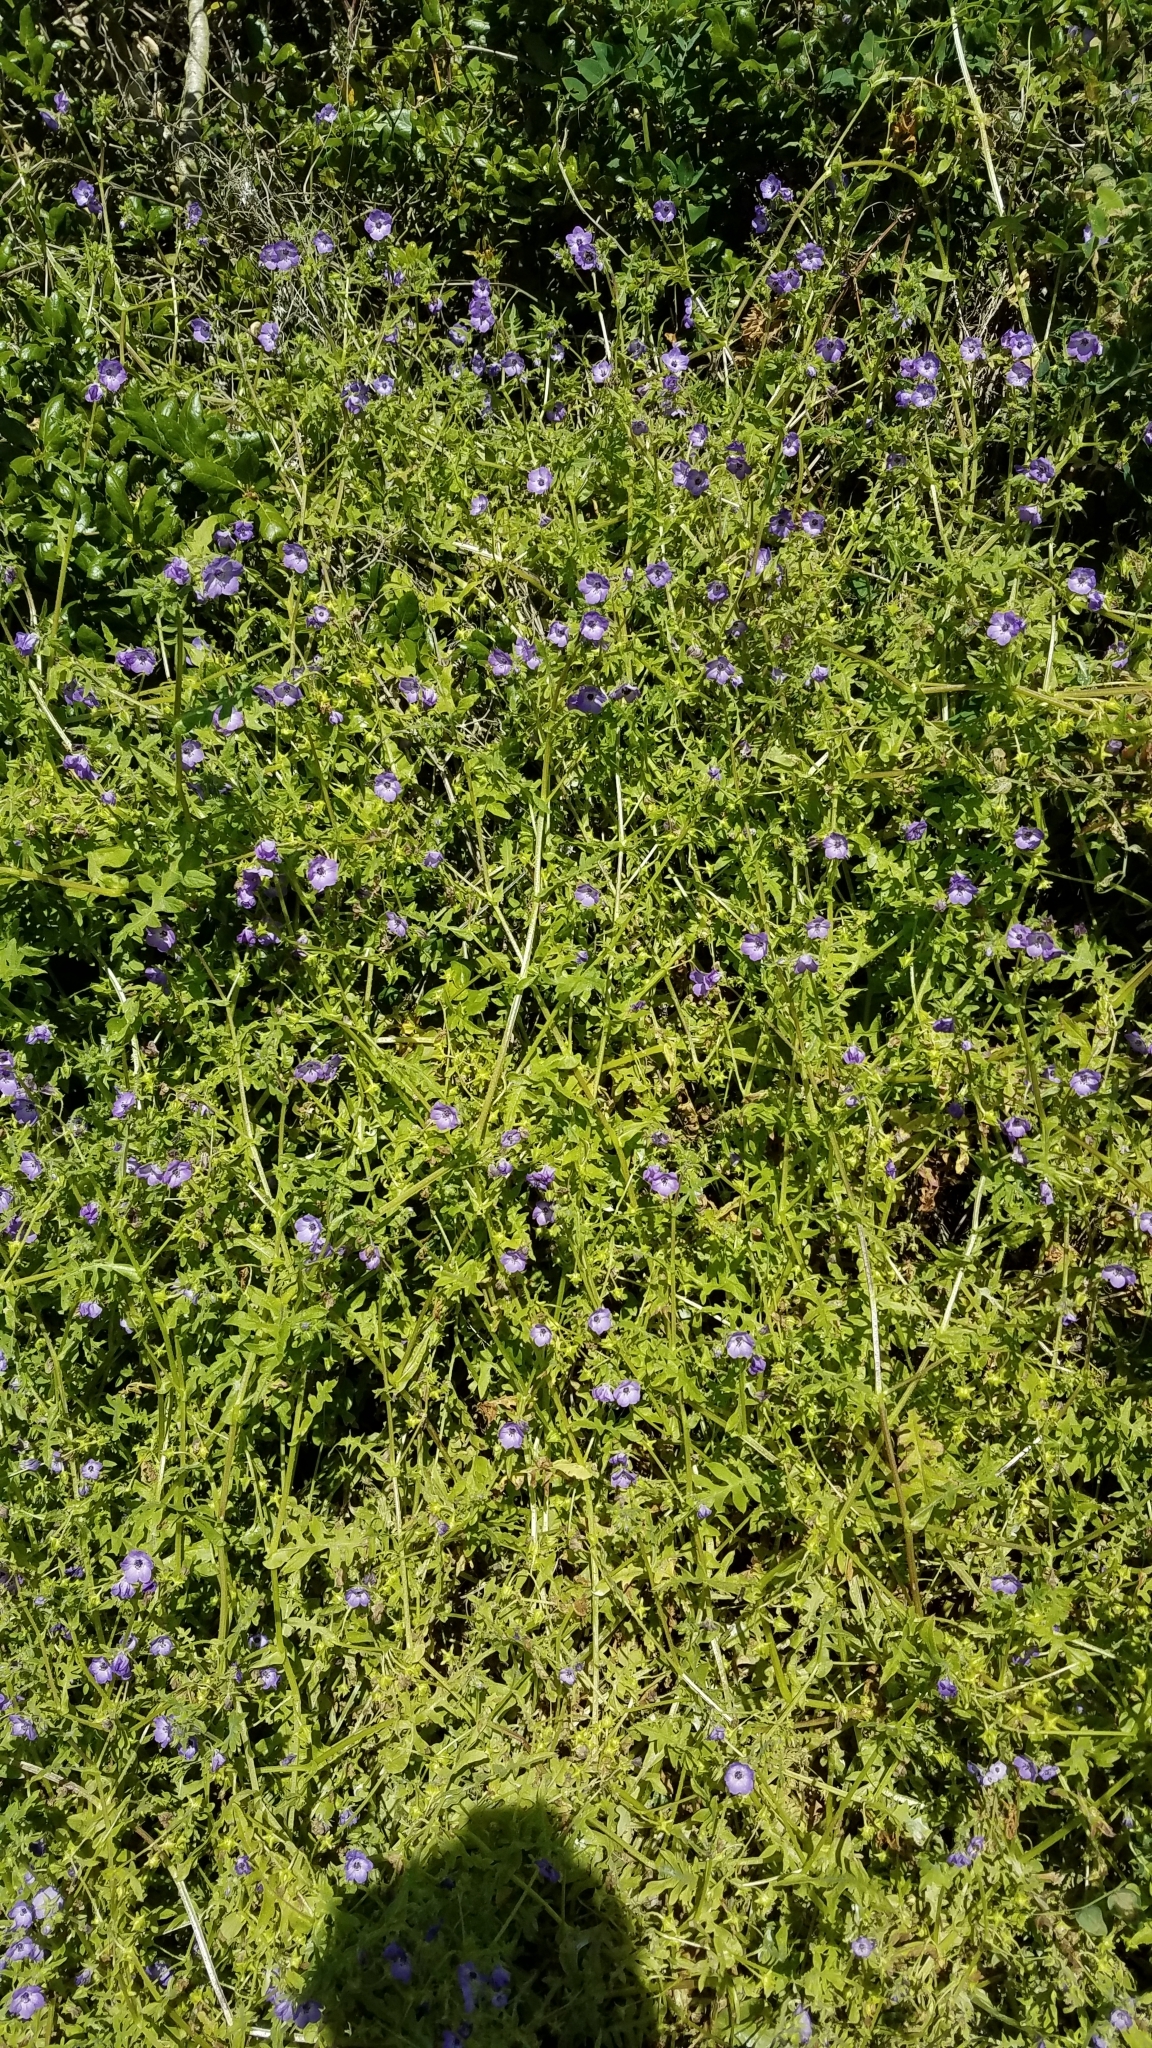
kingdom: Plantae
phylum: Tracheophyta
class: Magnoliopsida
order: Boraginales
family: Hydrophyllaceae
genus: Pholistoma
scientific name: Pholistoma auritum
